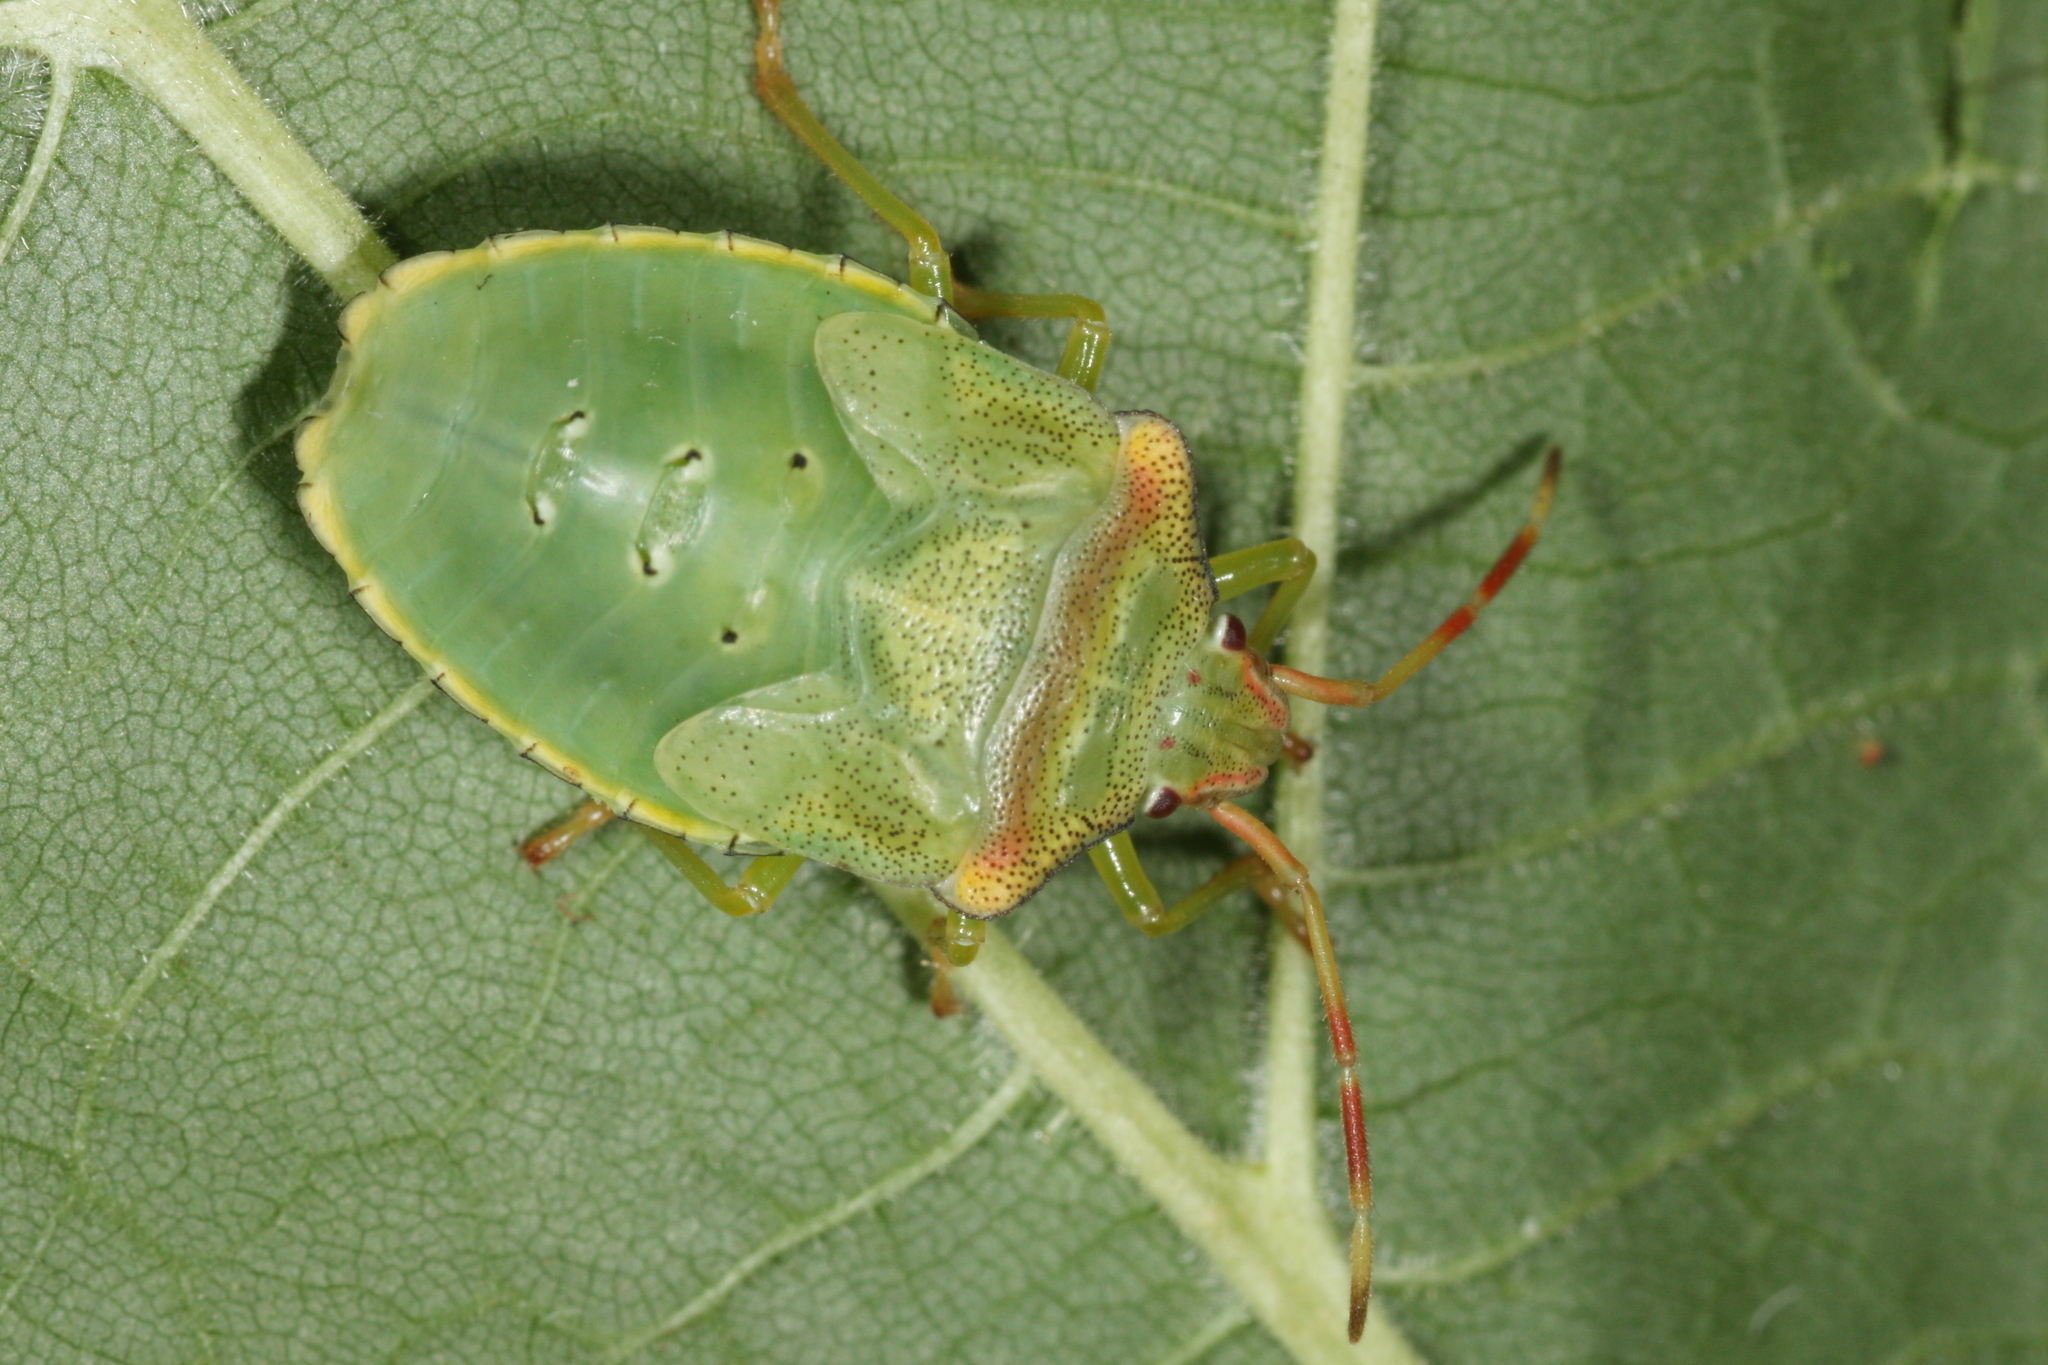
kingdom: Animalia
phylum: Arthropoda
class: Insecta
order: Hemiptera
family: Acanthosomatidae
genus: Acanthosoma
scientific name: Acanthosoma haemorrhoidale
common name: Hawthorn shieldbug
